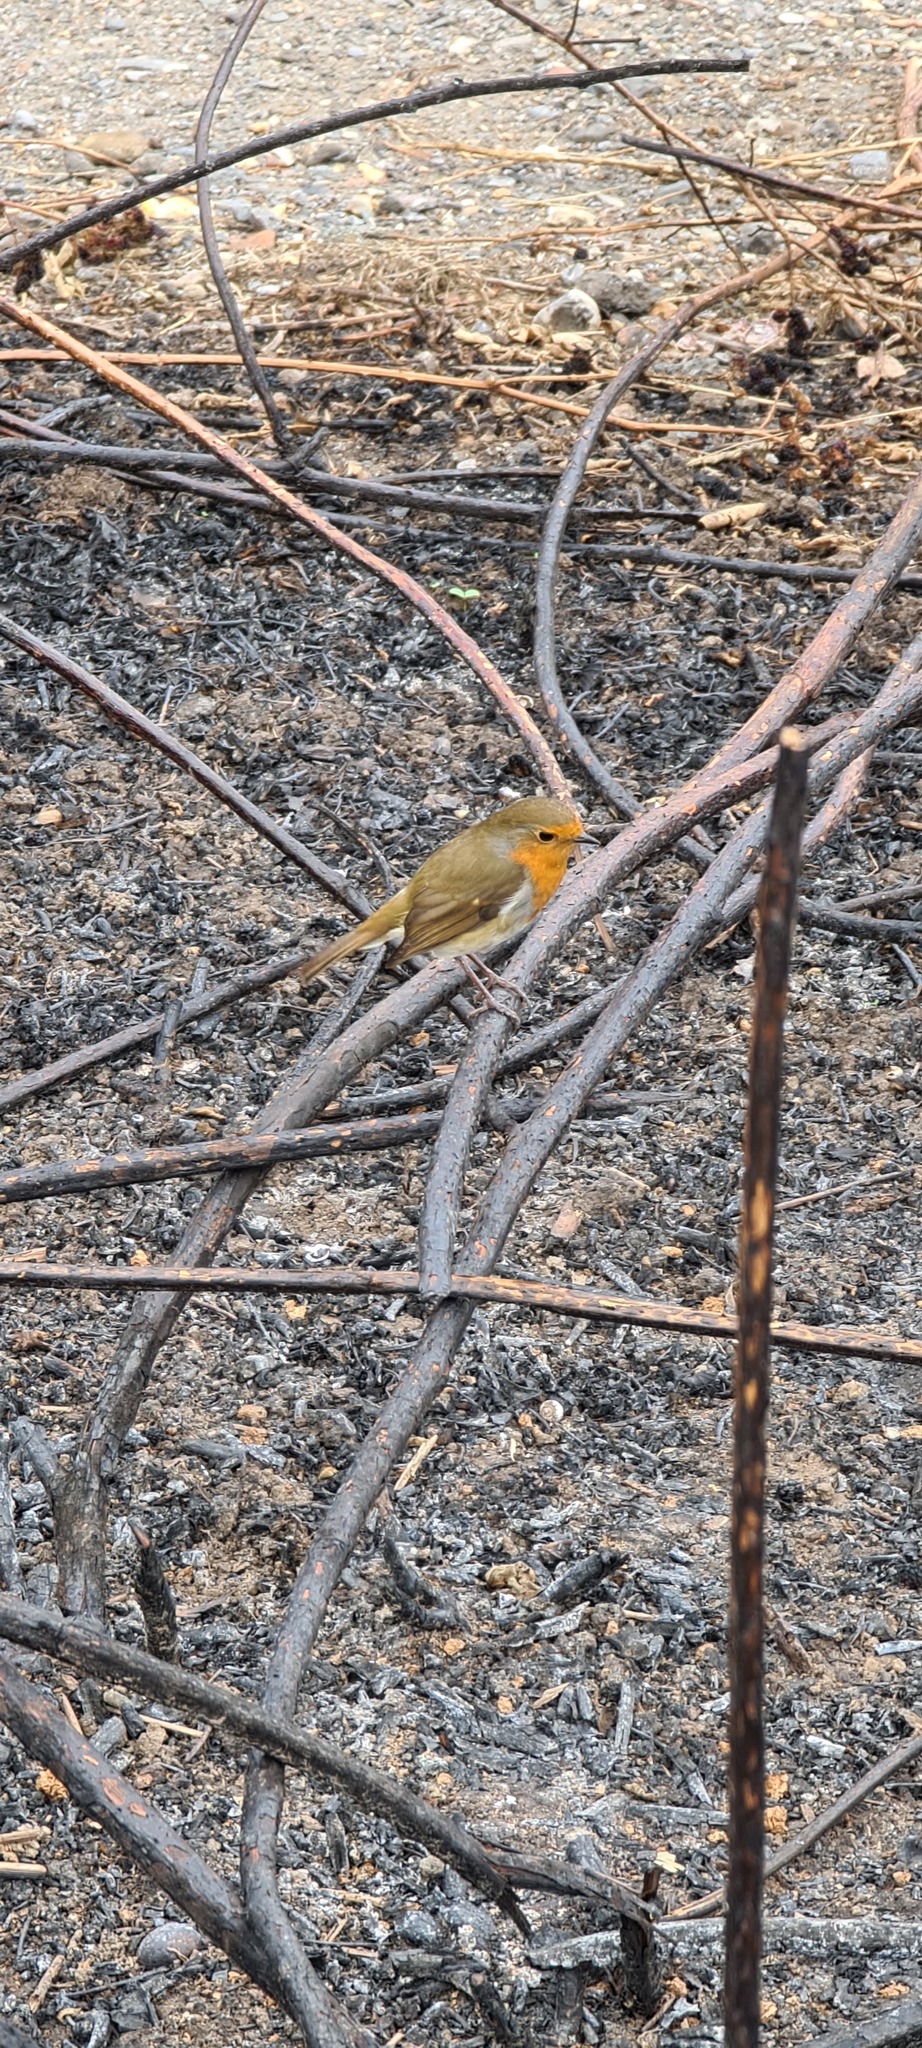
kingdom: Animalia
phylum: Chordata
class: Aves
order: Passeriformes
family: Muscicapidae
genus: Erithacus
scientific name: Erithacus rubecula
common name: European robin
